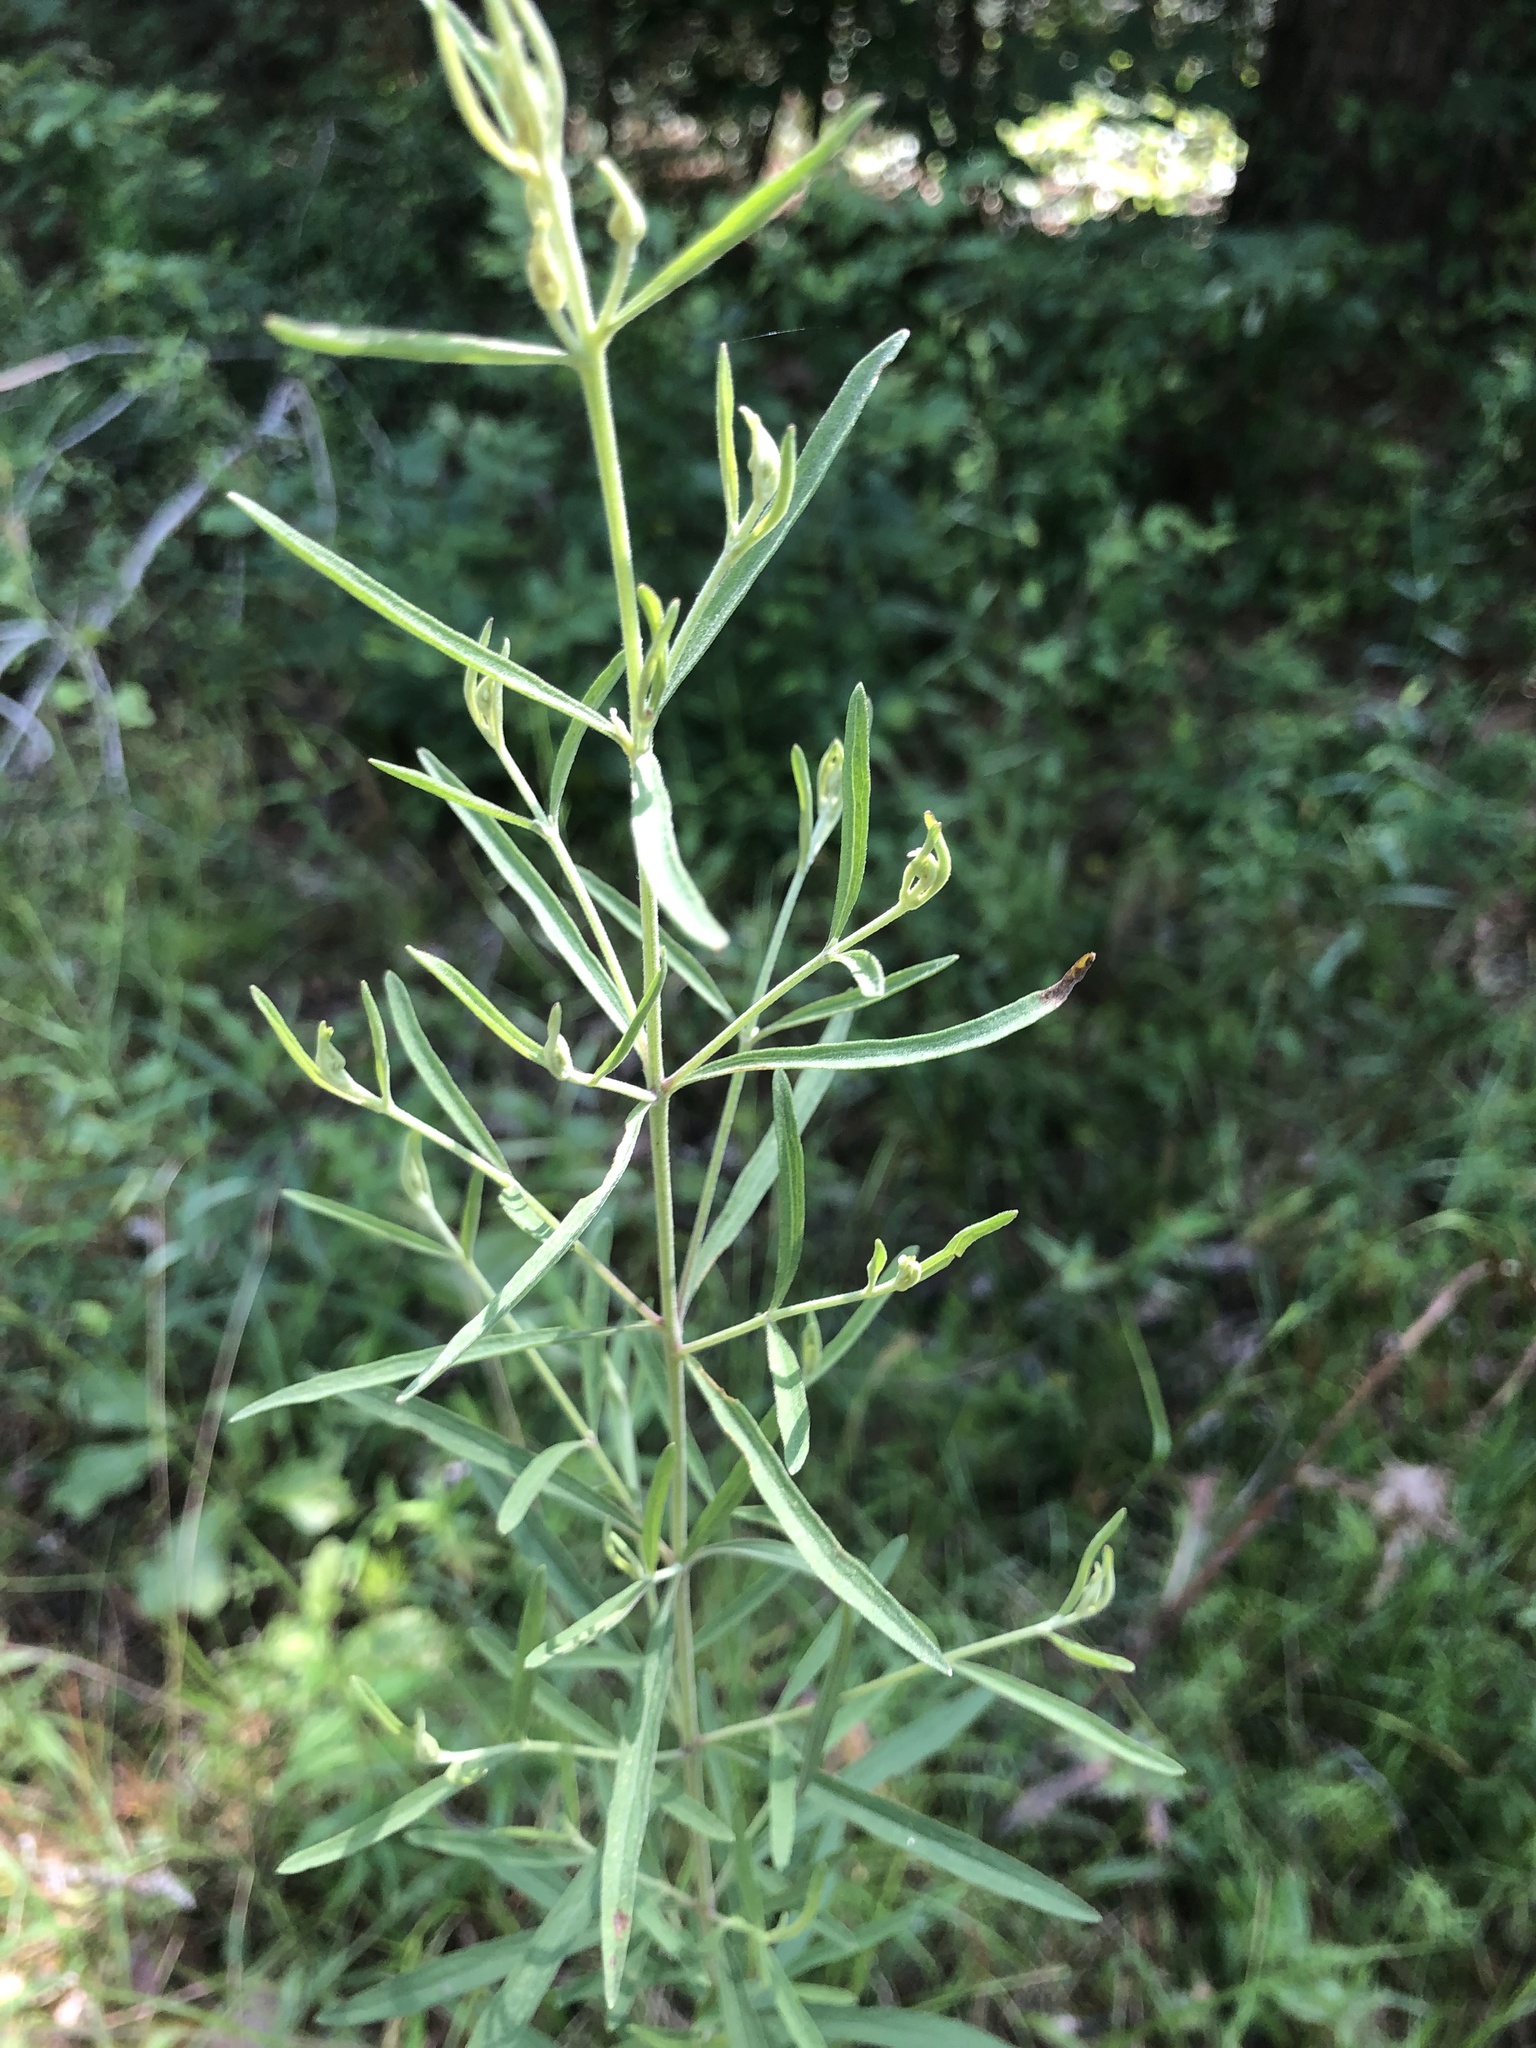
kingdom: Plantae
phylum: Tracheophyta
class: Magnoliopsida
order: Asterales
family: Asteraceae
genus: Eupatorium
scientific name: Eupatorium torreyanum
